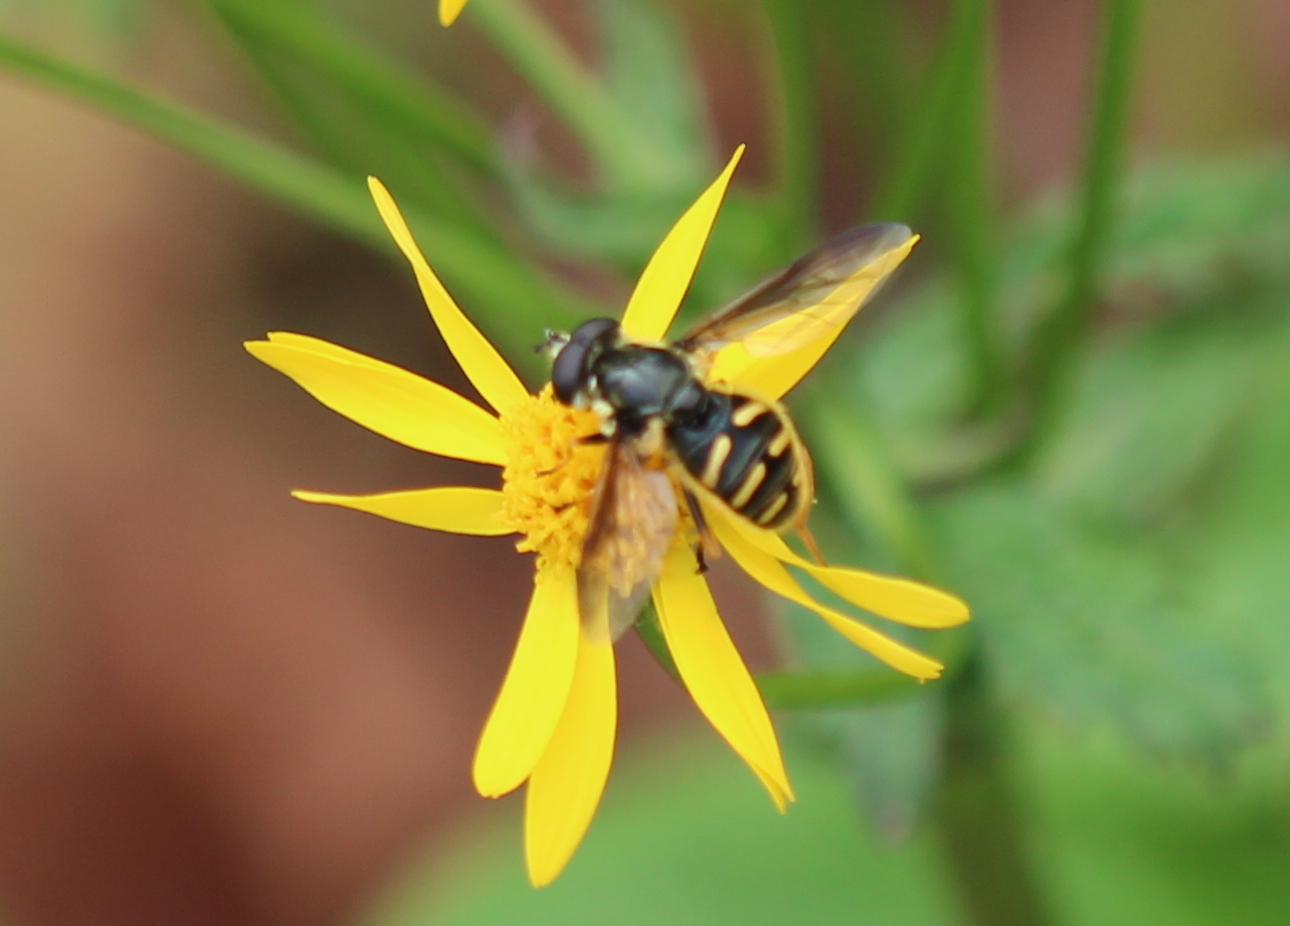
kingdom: Animalia
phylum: Arthropoda
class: Insecta
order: Diptera
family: Syrphidae
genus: Sericomyia
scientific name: Sericomyia chrysotoxoides
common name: Oblique-banded pond fly
